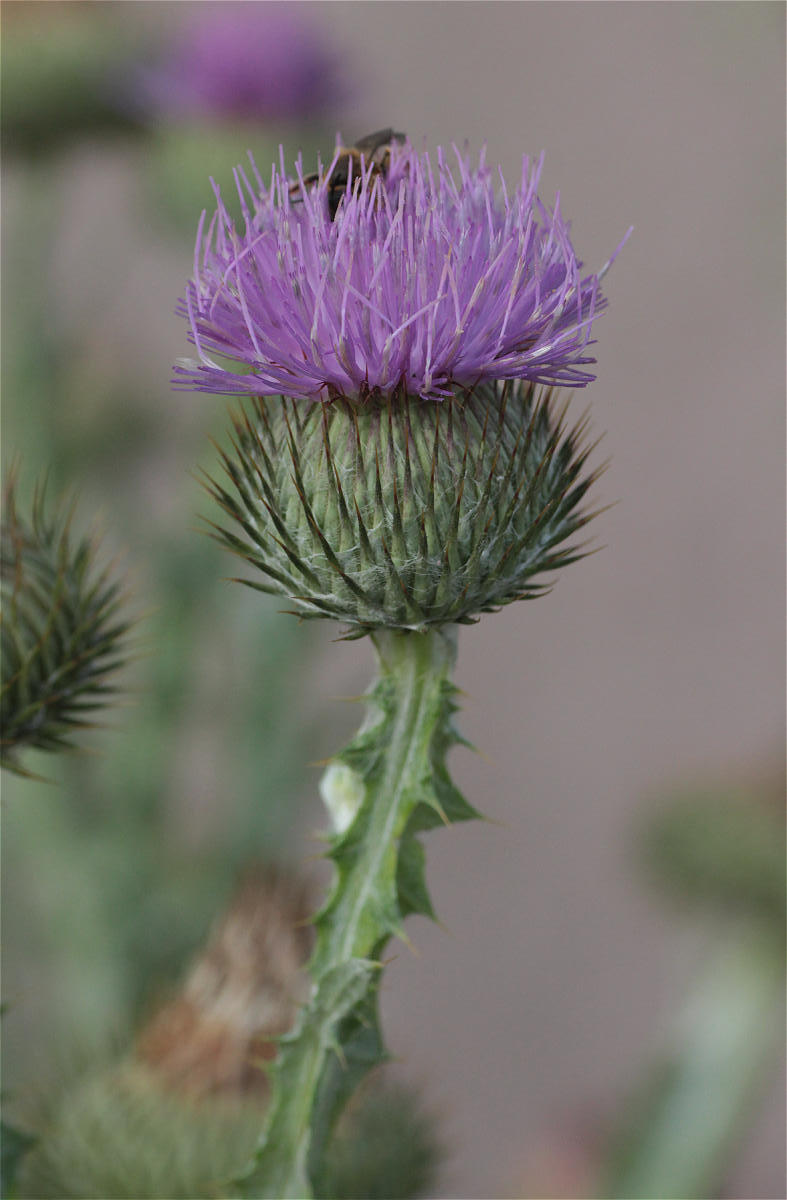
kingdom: Plantae
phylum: Tracheophyta
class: Magnoliopsida
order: Asterales
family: Asteraceae
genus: Onopordum
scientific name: Onopordum acanthium
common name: Scotch thistle
